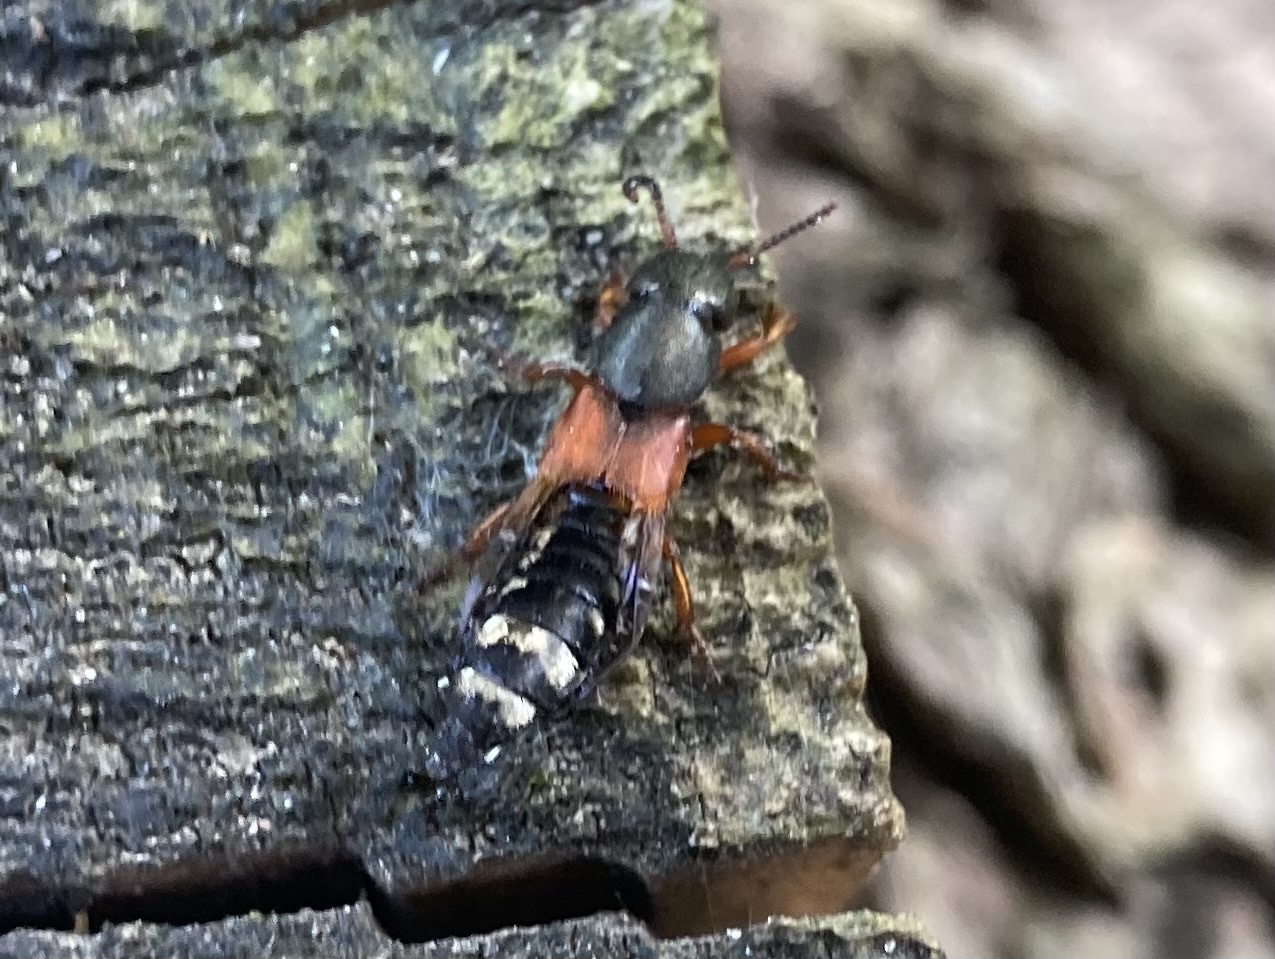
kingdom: Animalia
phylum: Arthropoda
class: Insecta
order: Coleoptera
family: Staphylinidae
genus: Platydracus
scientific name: Platydracus stercorarius
